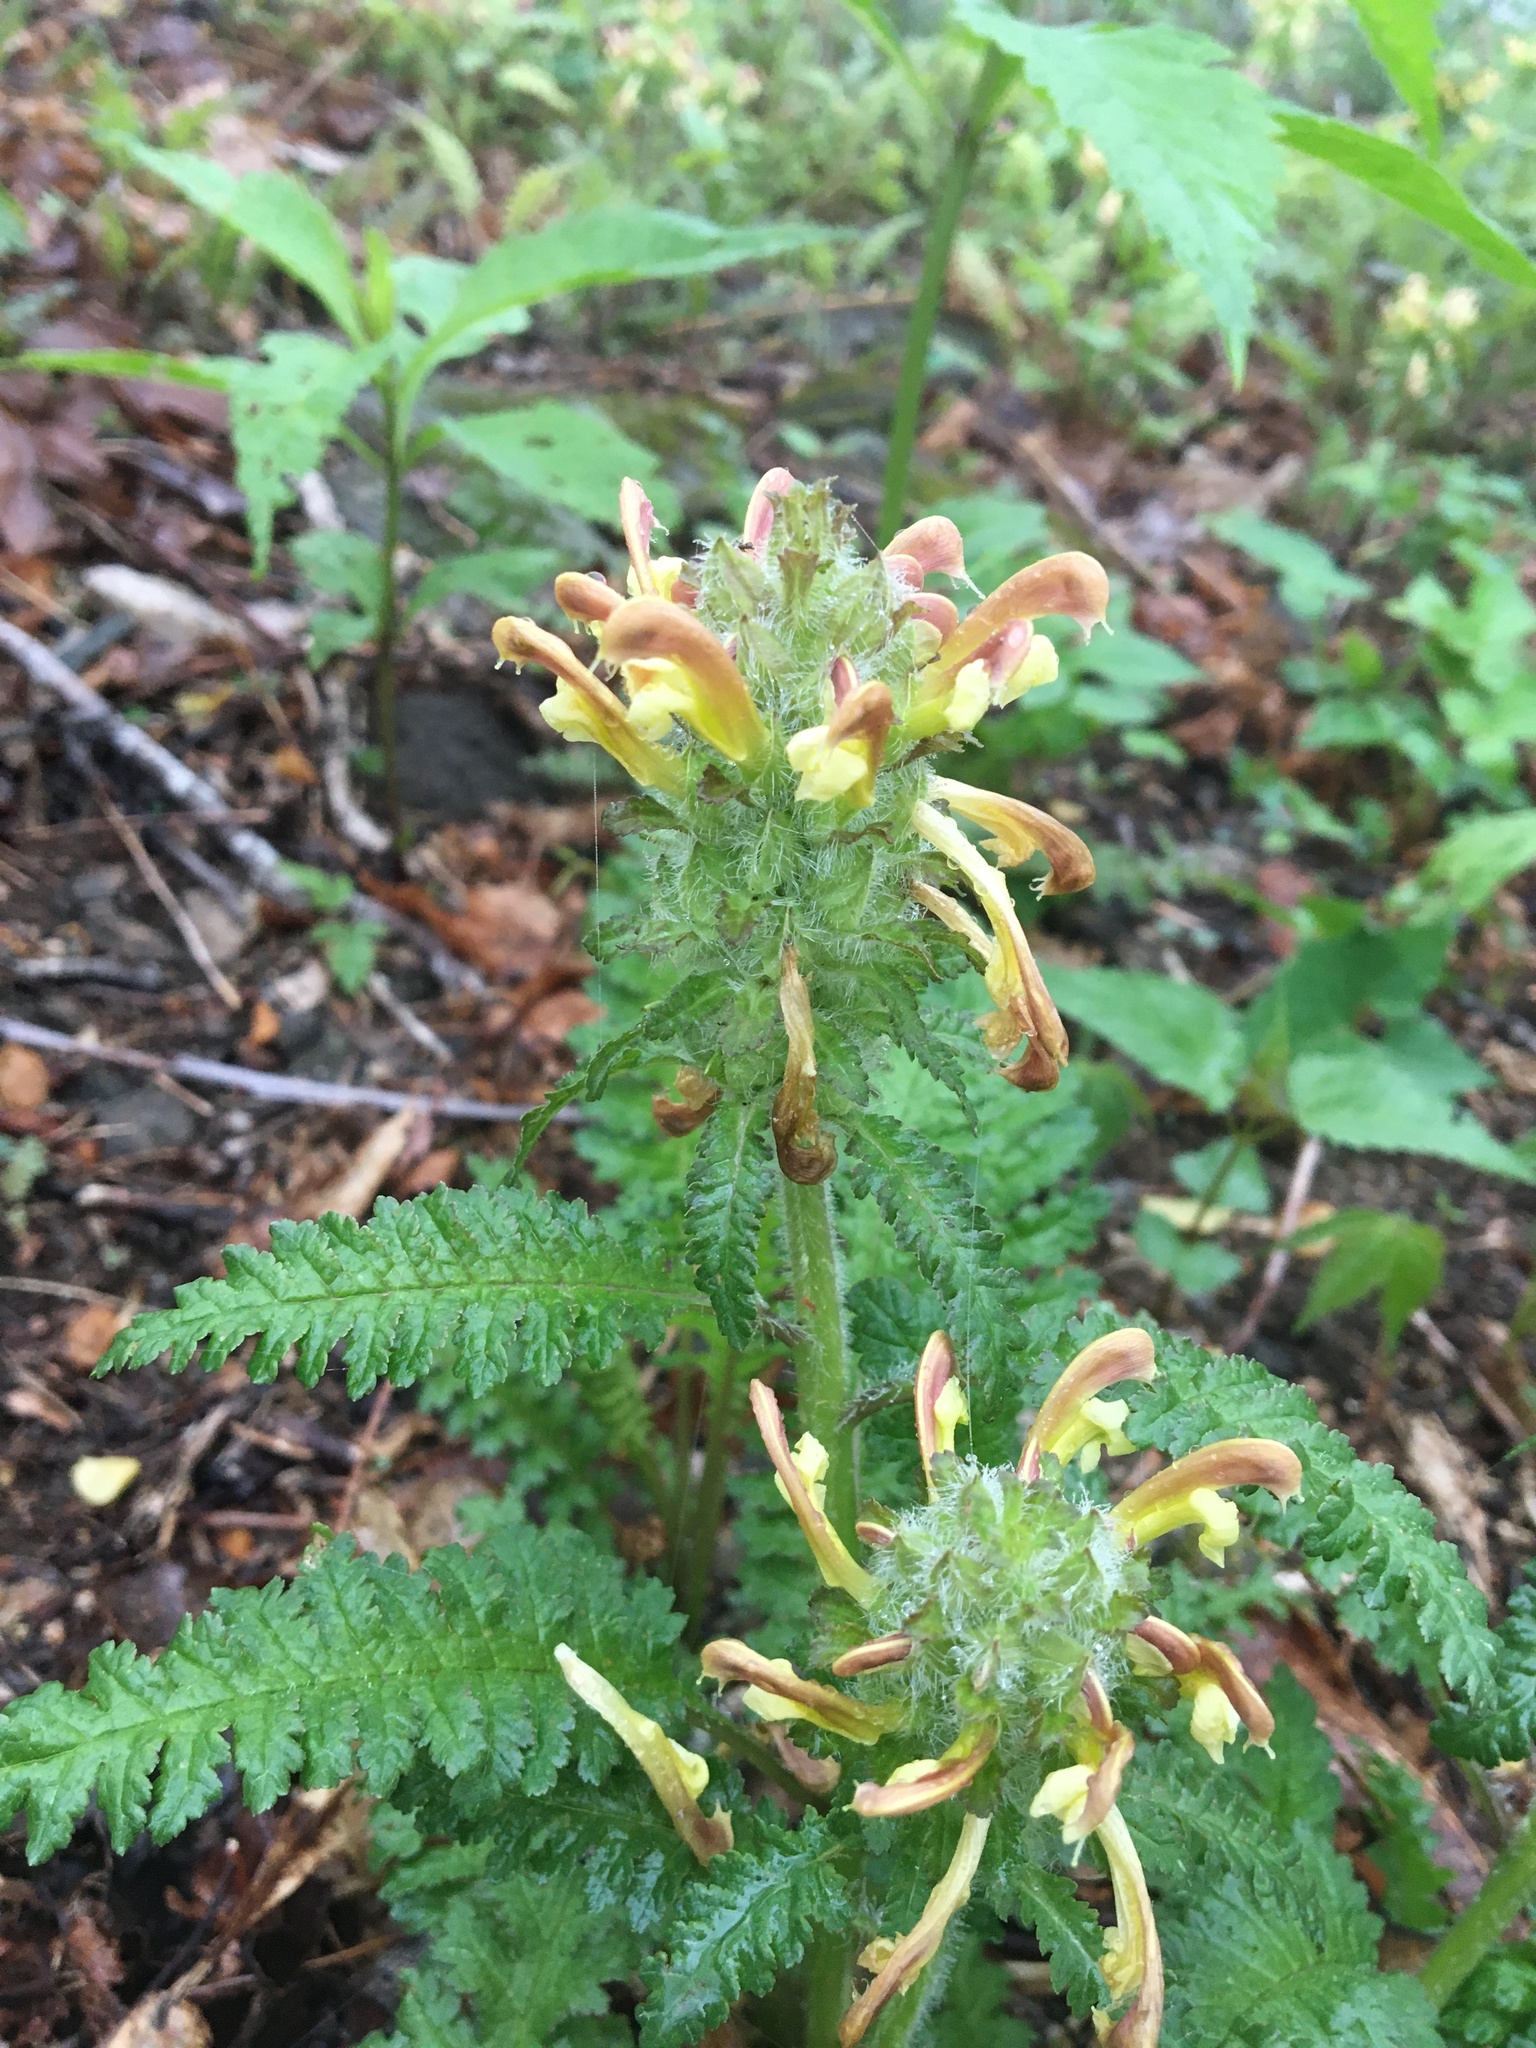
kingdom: Plantae
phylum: Tracheophyta
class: Magnoliopsida
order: Lamiales
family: Orobanchaceae
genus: Pedicularis
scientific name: Pedicularis canadensis
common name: Early lousewort
